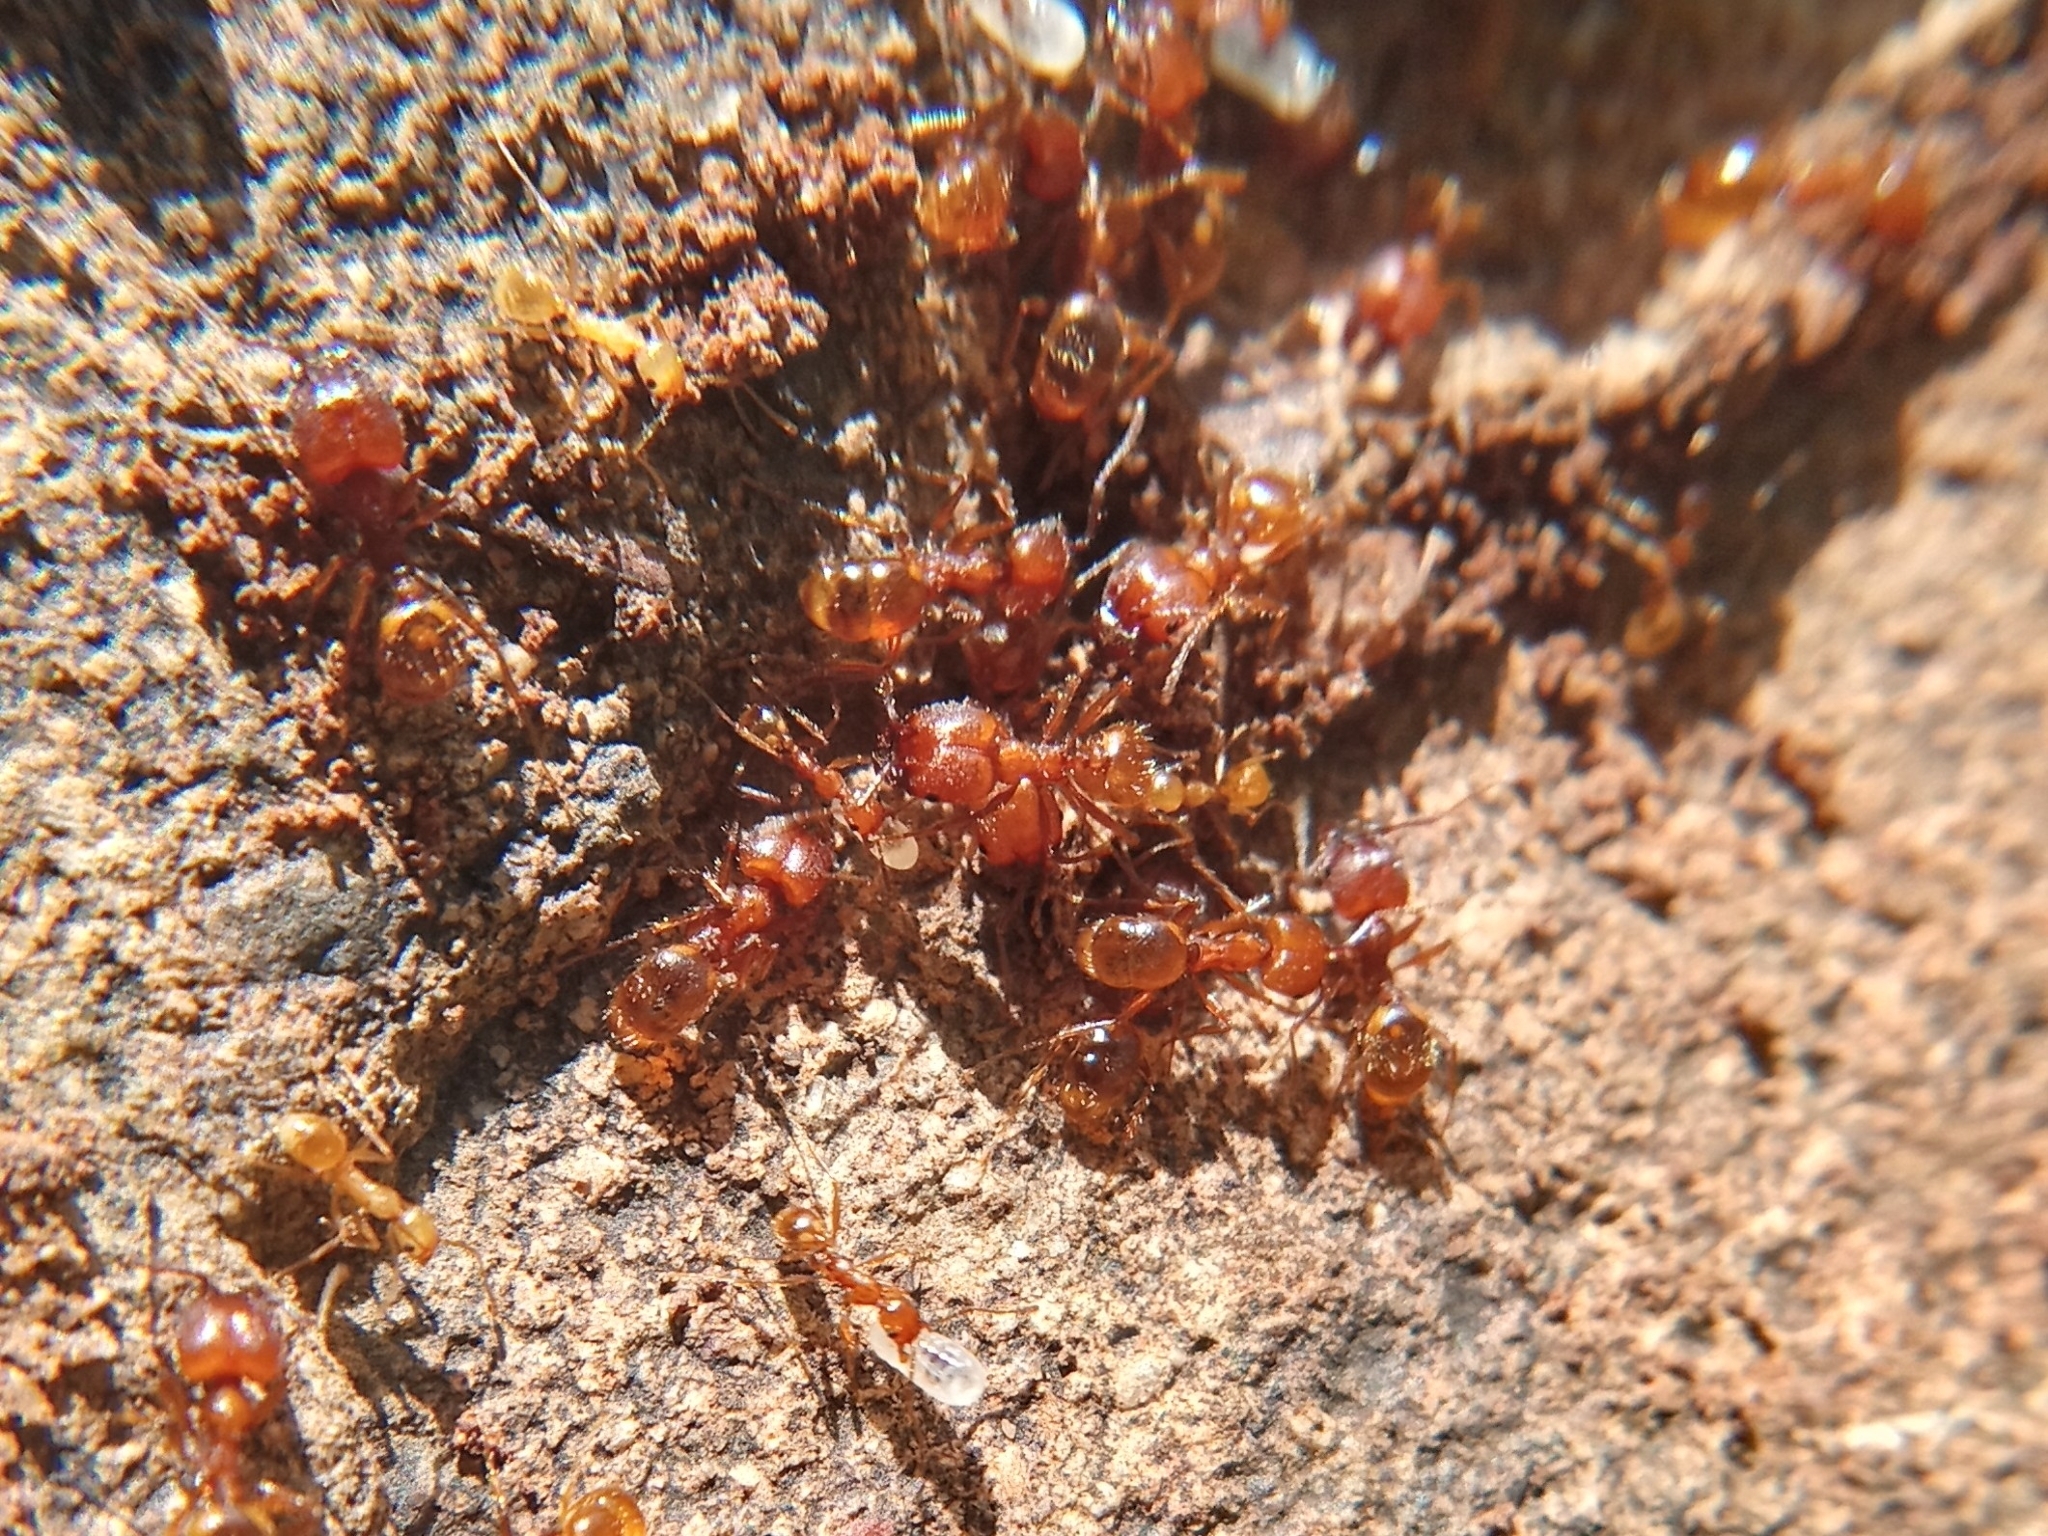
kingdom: Animalia
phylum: Arthropoda
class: Insecta
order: Hymenoptera
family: Formicidae
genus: Pheidole
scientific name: Pheidole hyatti
